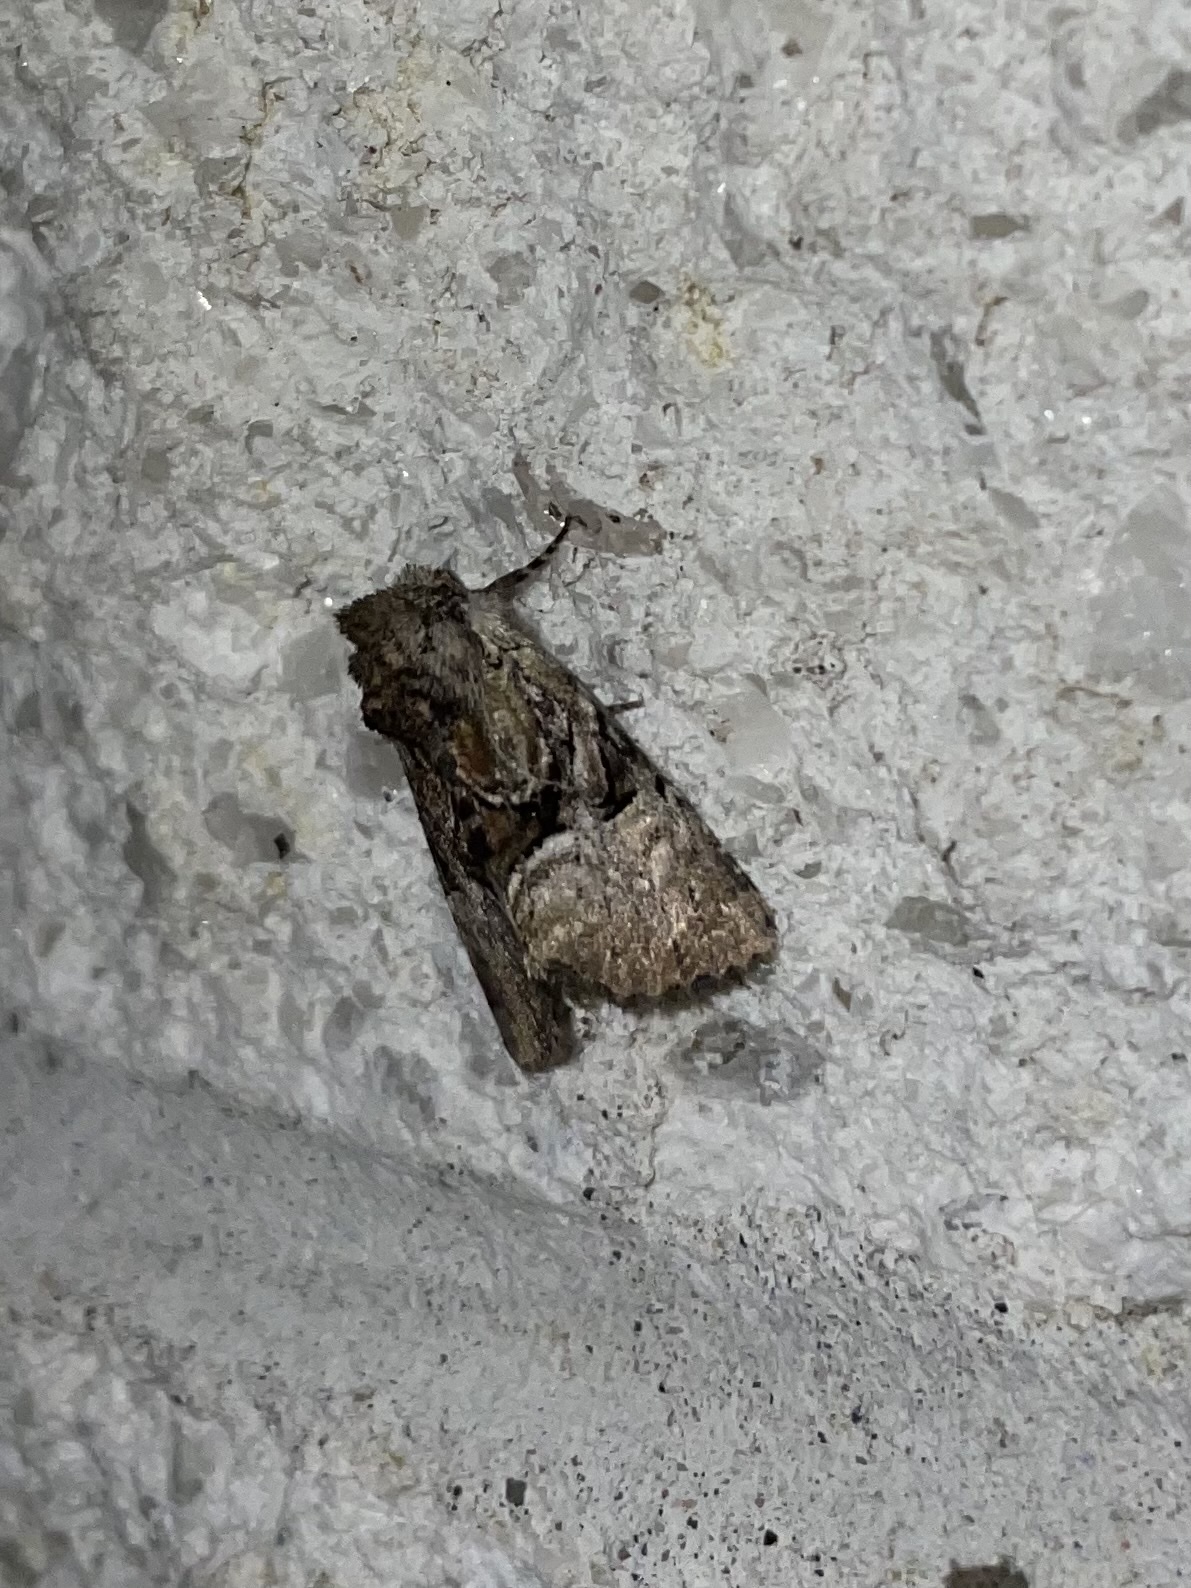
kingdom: Animalia
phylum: Arthropoda
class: Insecta
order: Lepidoptera
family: Noctuidae
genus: Meropleon
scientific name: Meropleon ambifusca
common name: Newman's brocade
